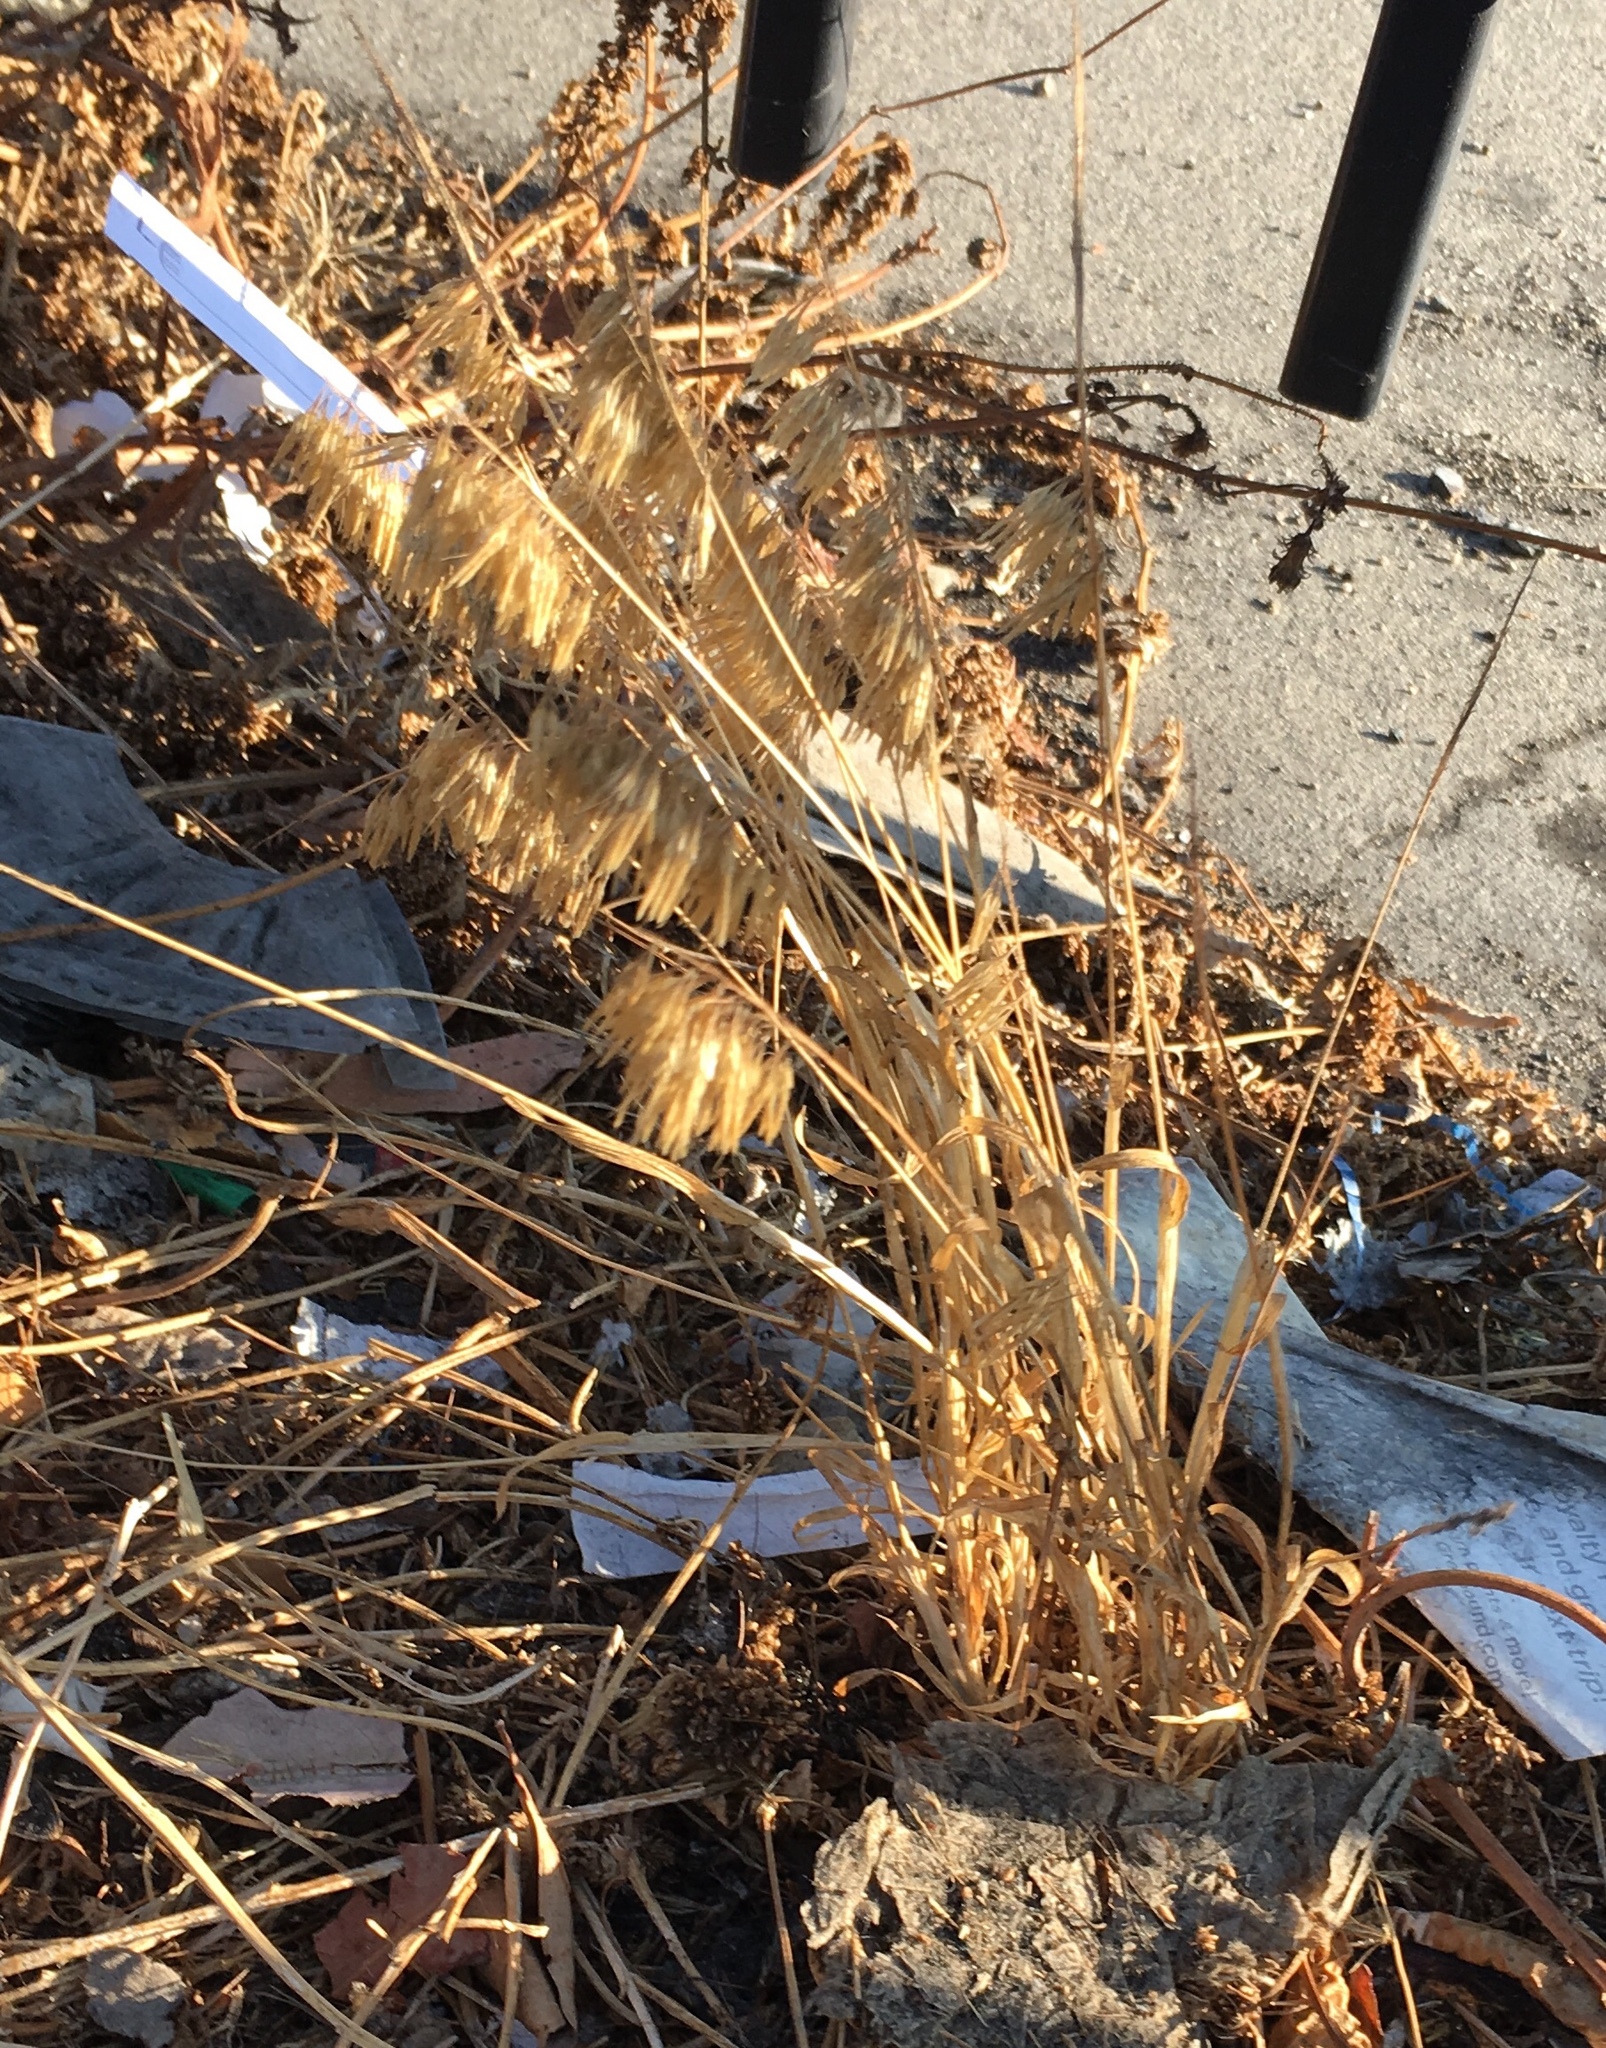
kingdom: Plantae
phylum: Tracheophyta
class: Liliopsida
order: Poales
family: Poaceae
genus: Lamarckia
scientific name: Lamarckia aurea
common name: Golden dog's-tail
